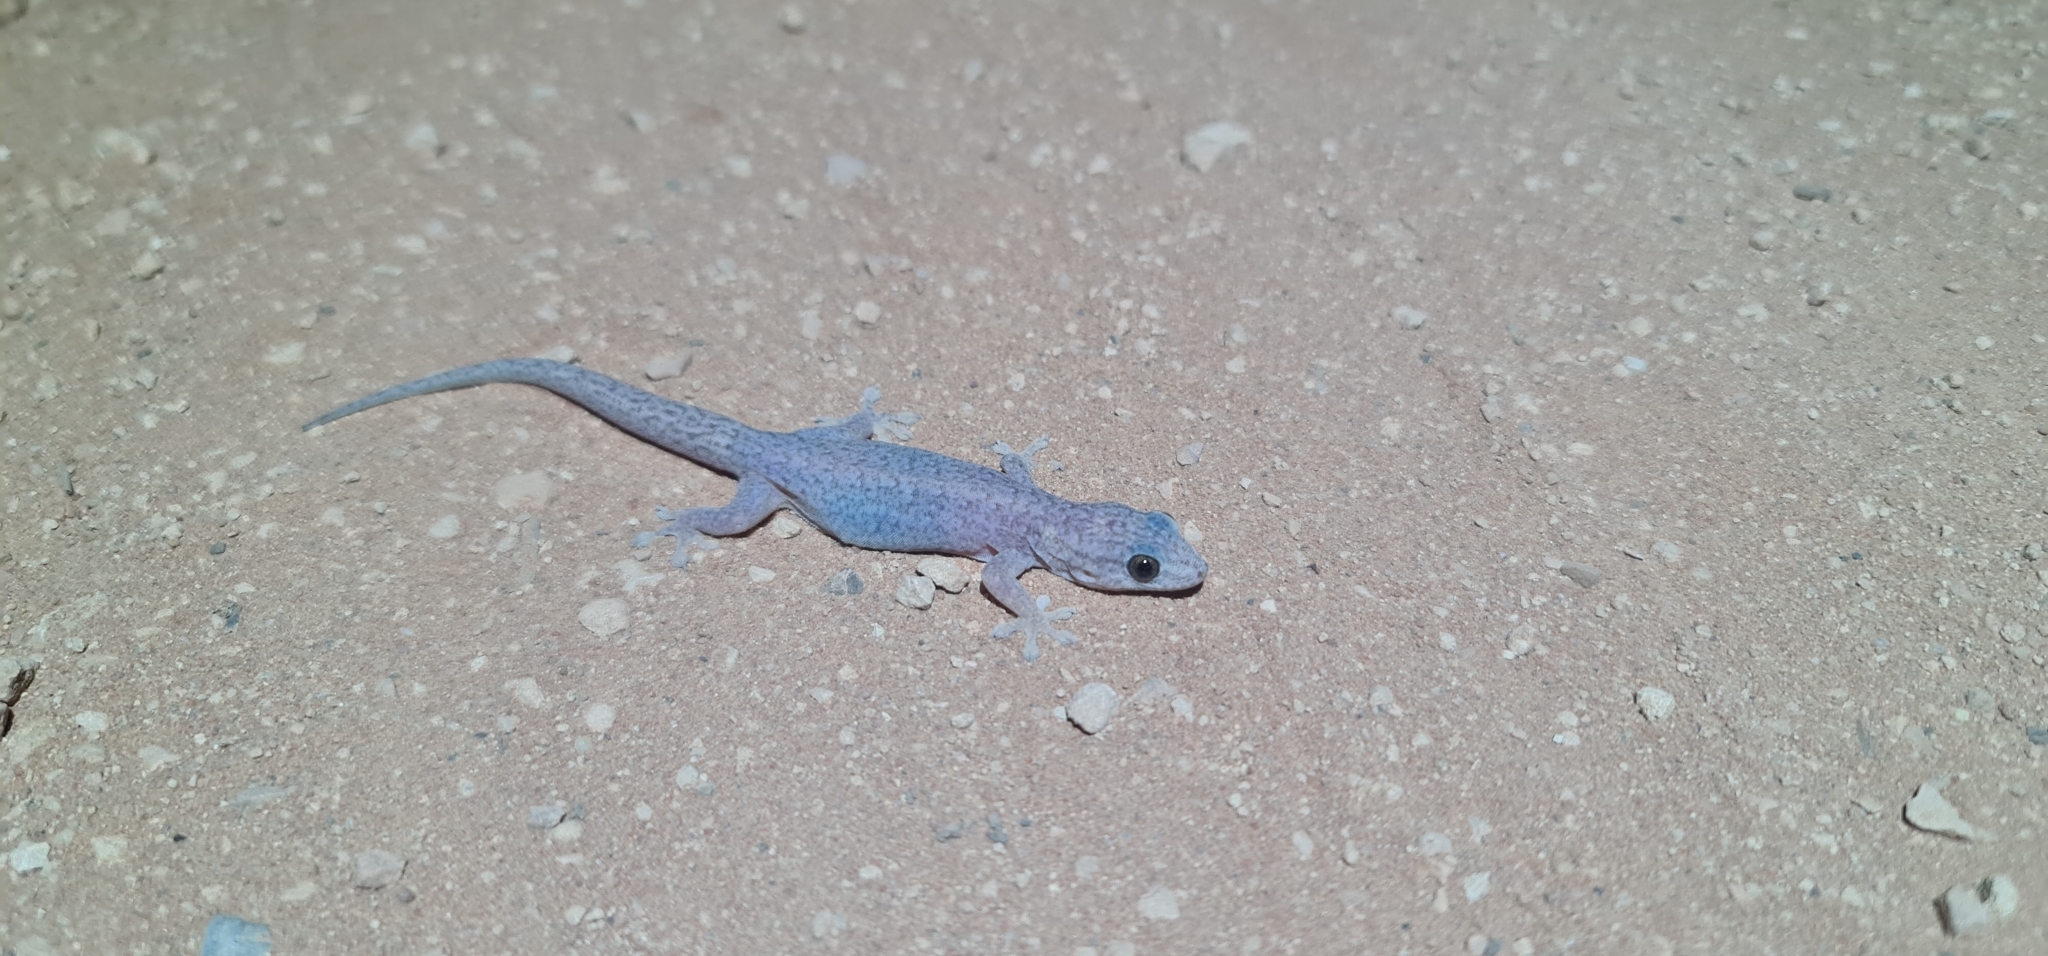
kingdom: Animalia
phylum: Chordata
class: Squamata
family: Gekkonidae
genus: Gehyra
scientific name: Gehyra versicolor
